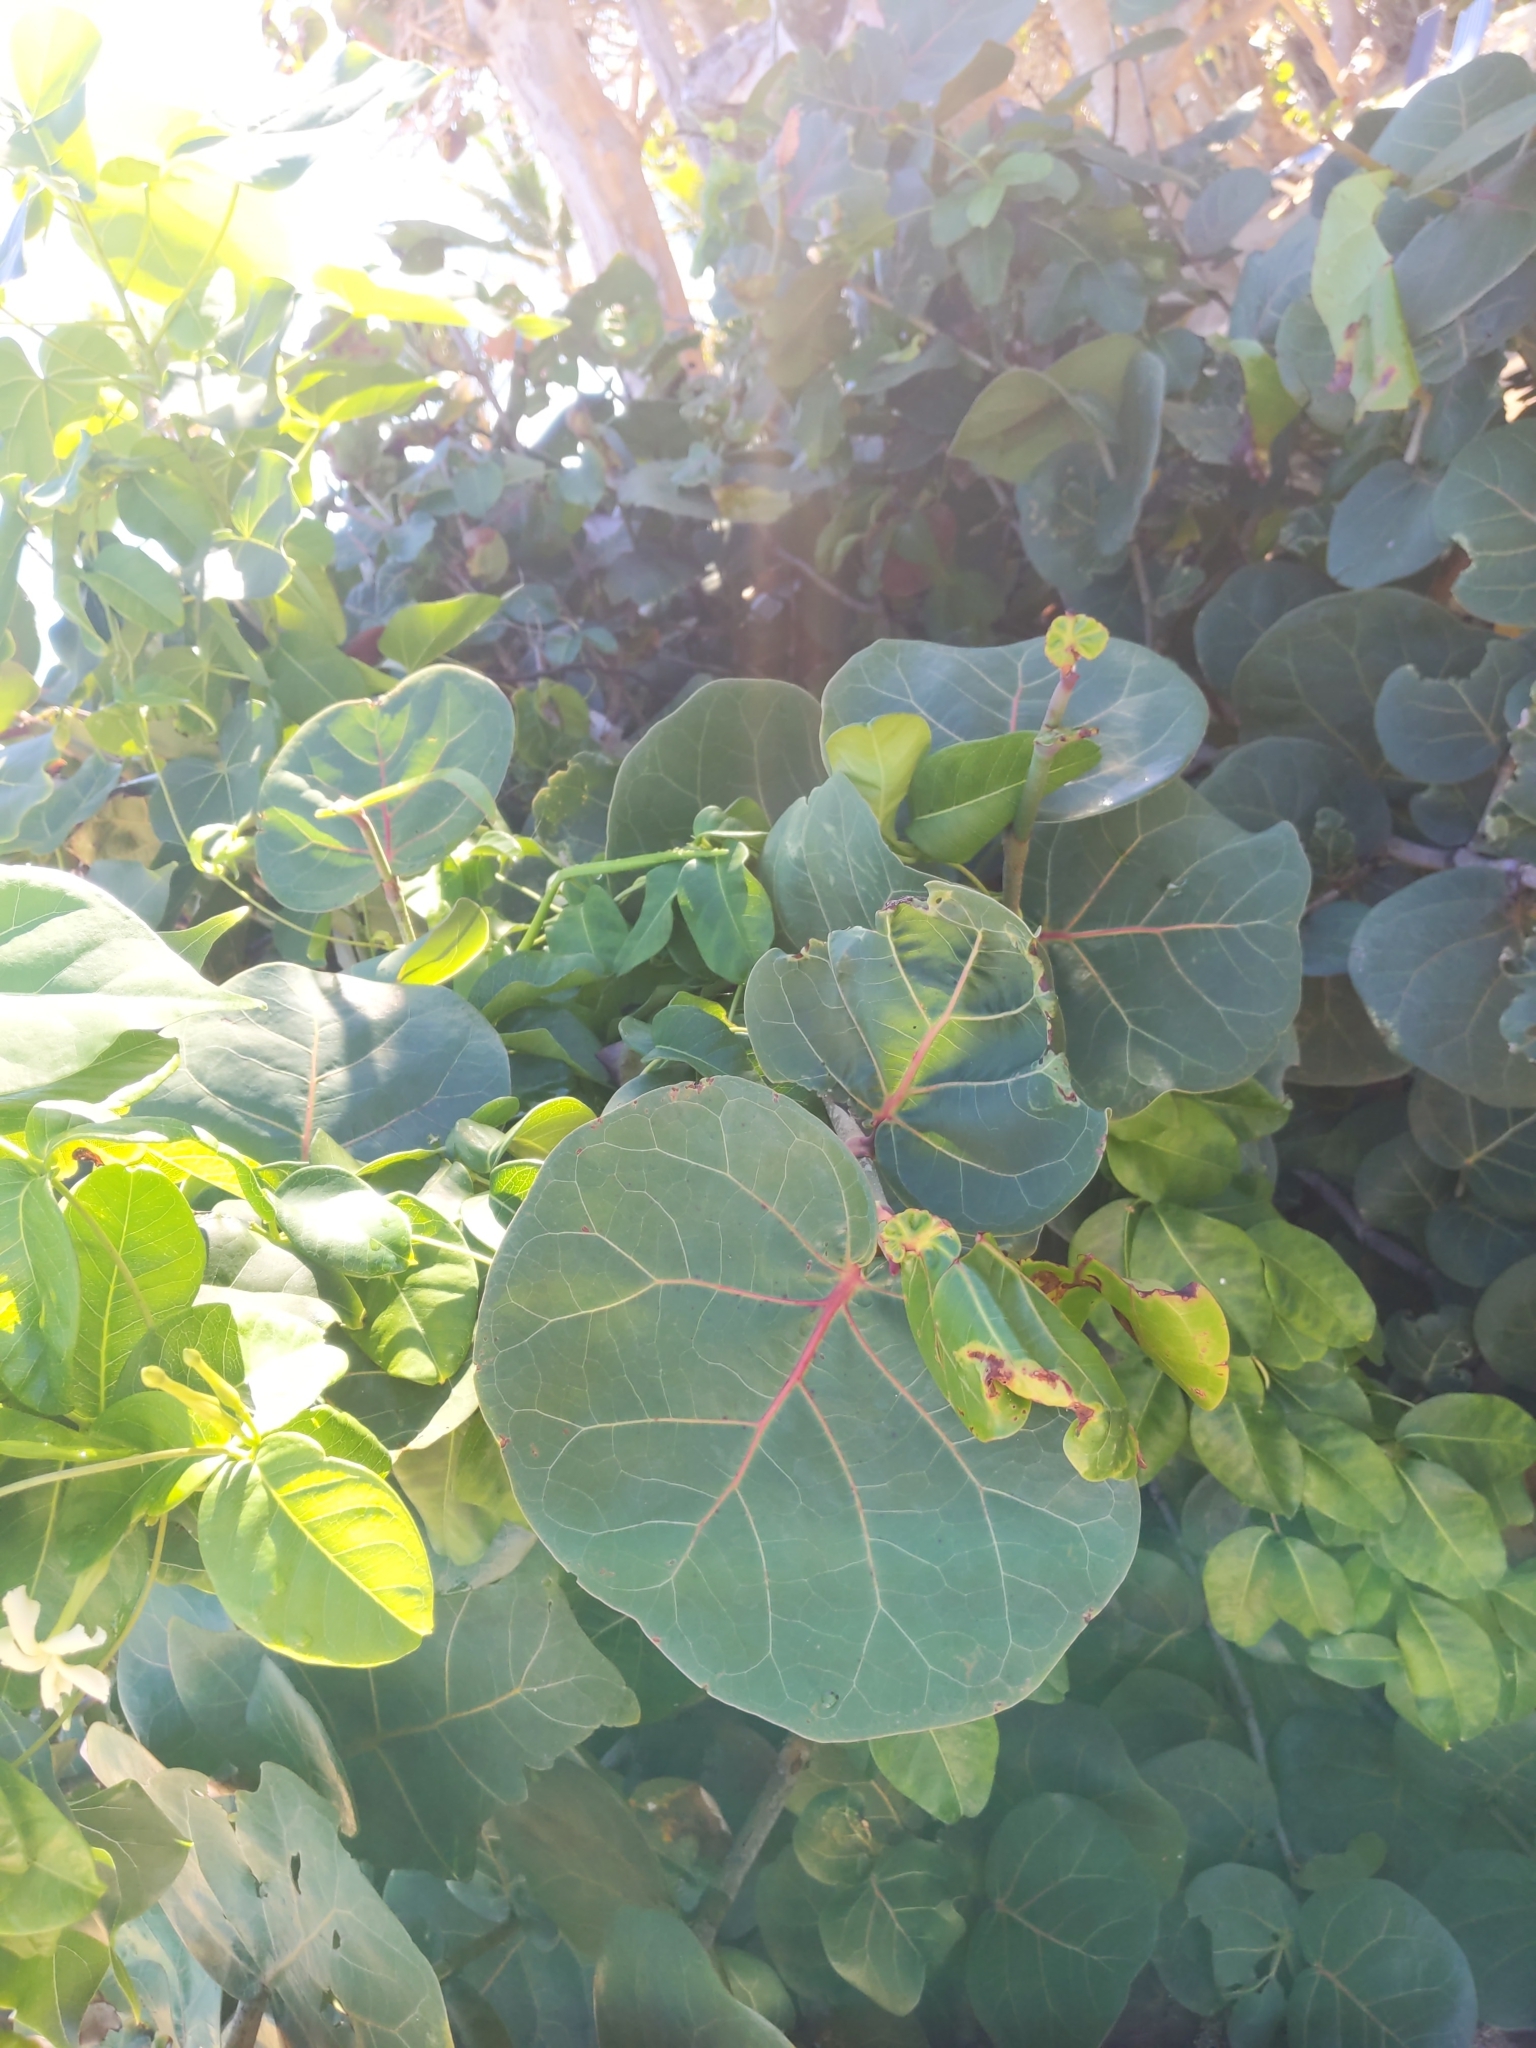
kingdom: Plantae
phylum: Tracheophyta
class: Magnoliopsida
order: Caryophyllales
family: Polygonaceae
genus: Coccoloba
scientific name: Coccoloba uvifera
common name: Seagrape
